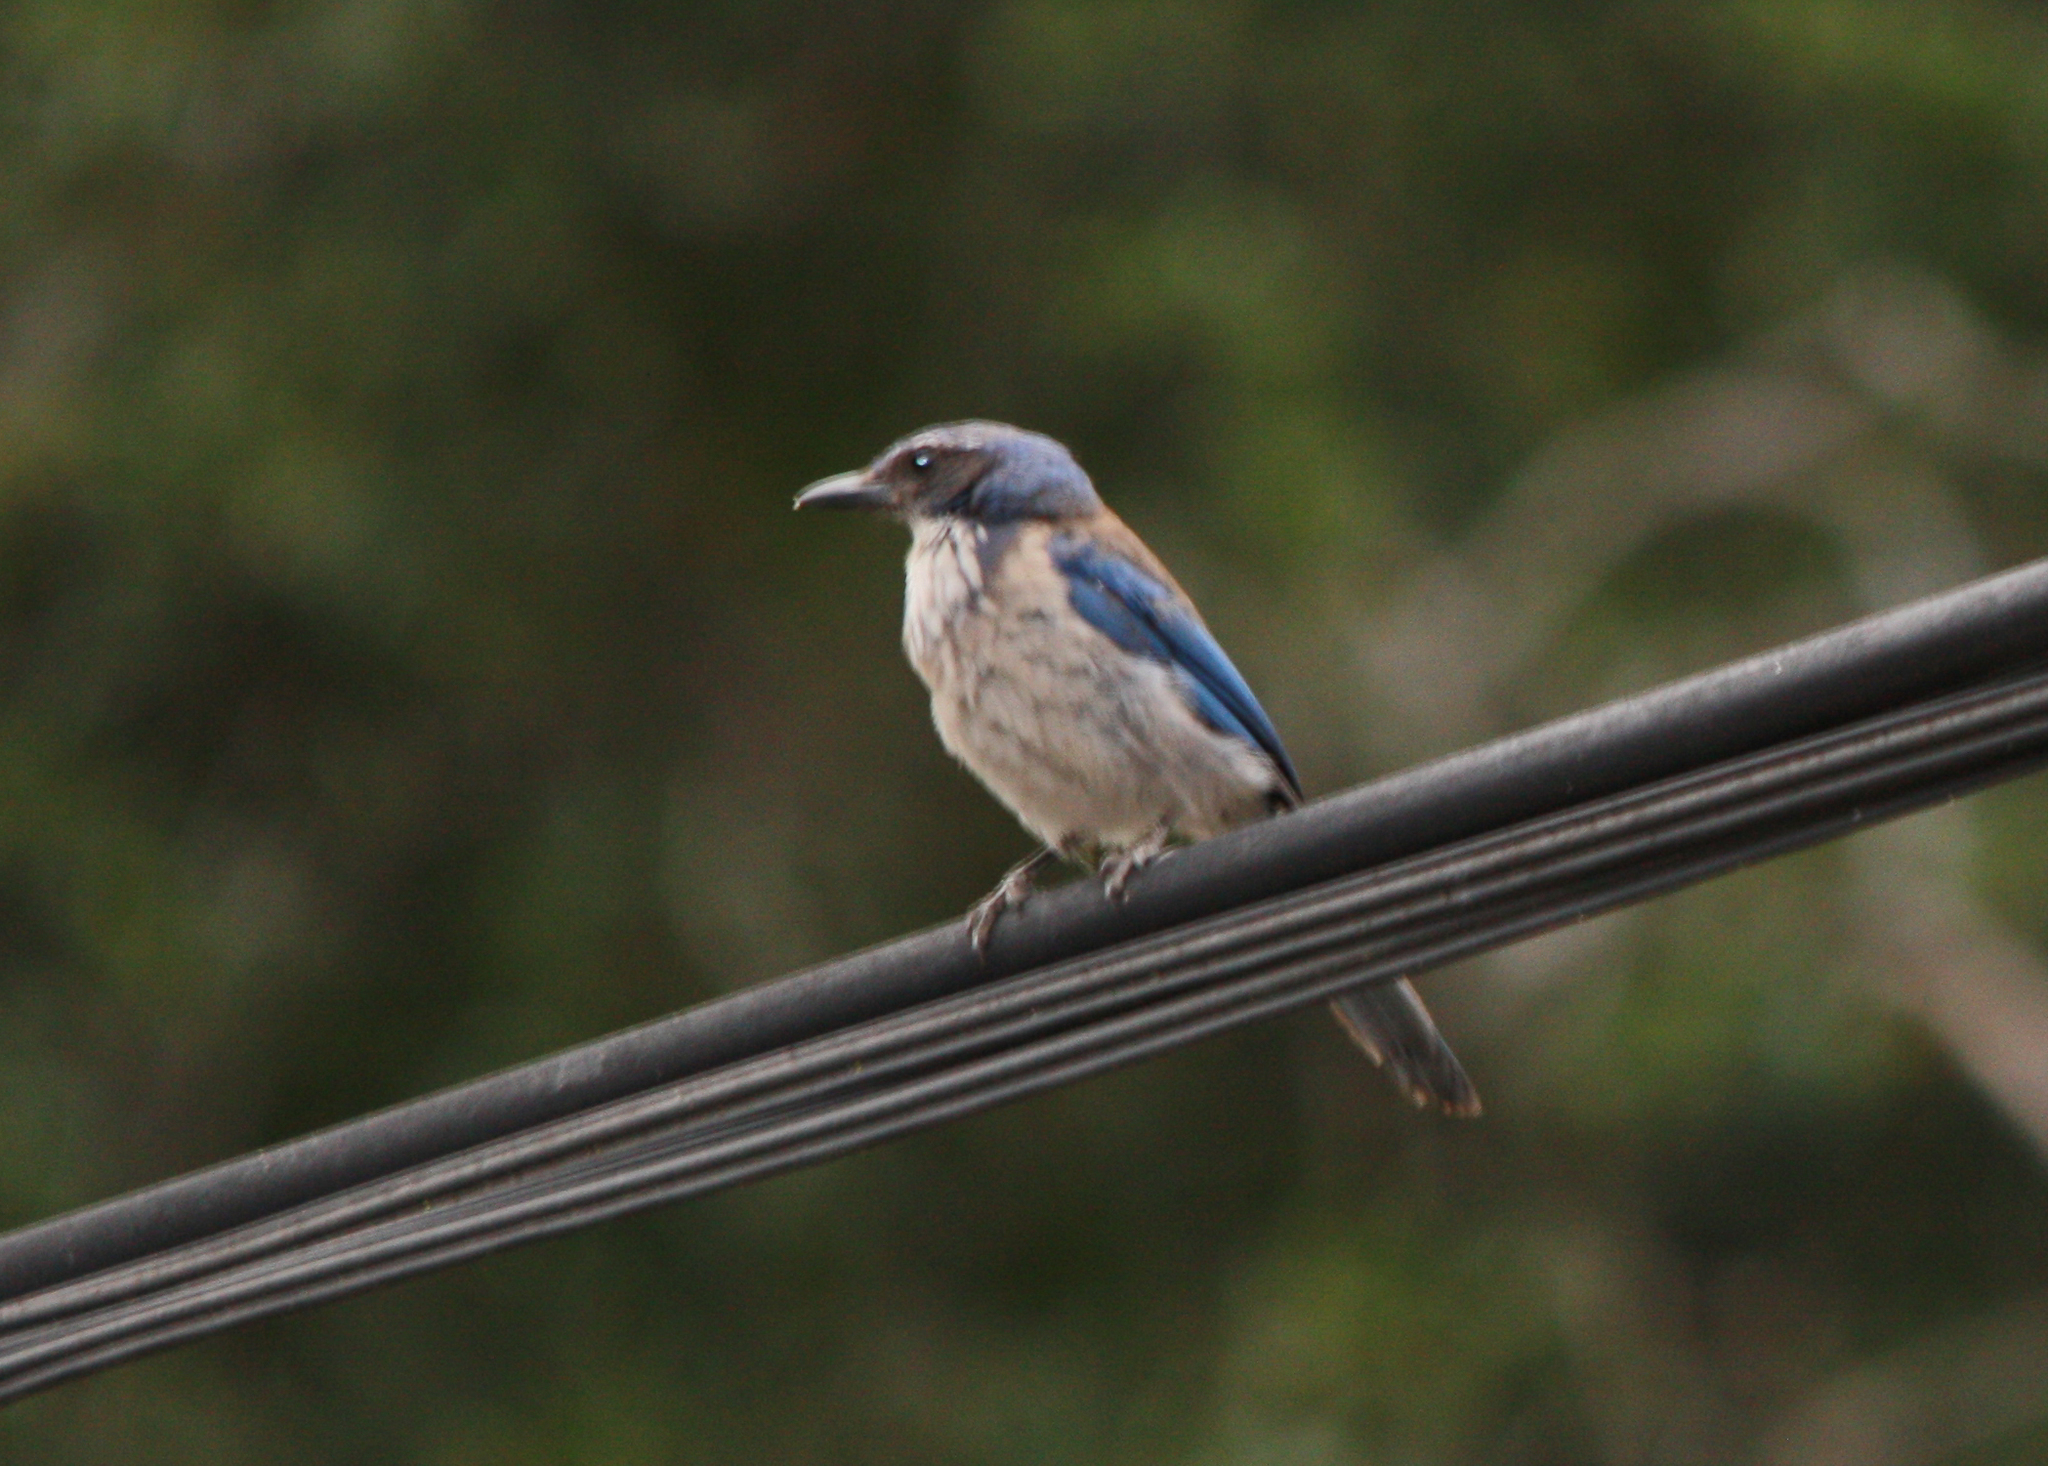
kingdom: Animalia
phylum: Chordata
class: Aves
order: Passeriformes
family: Corvidae
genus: Aphelocoma
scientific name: Aphelocoma californica
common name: California scrub-jay
